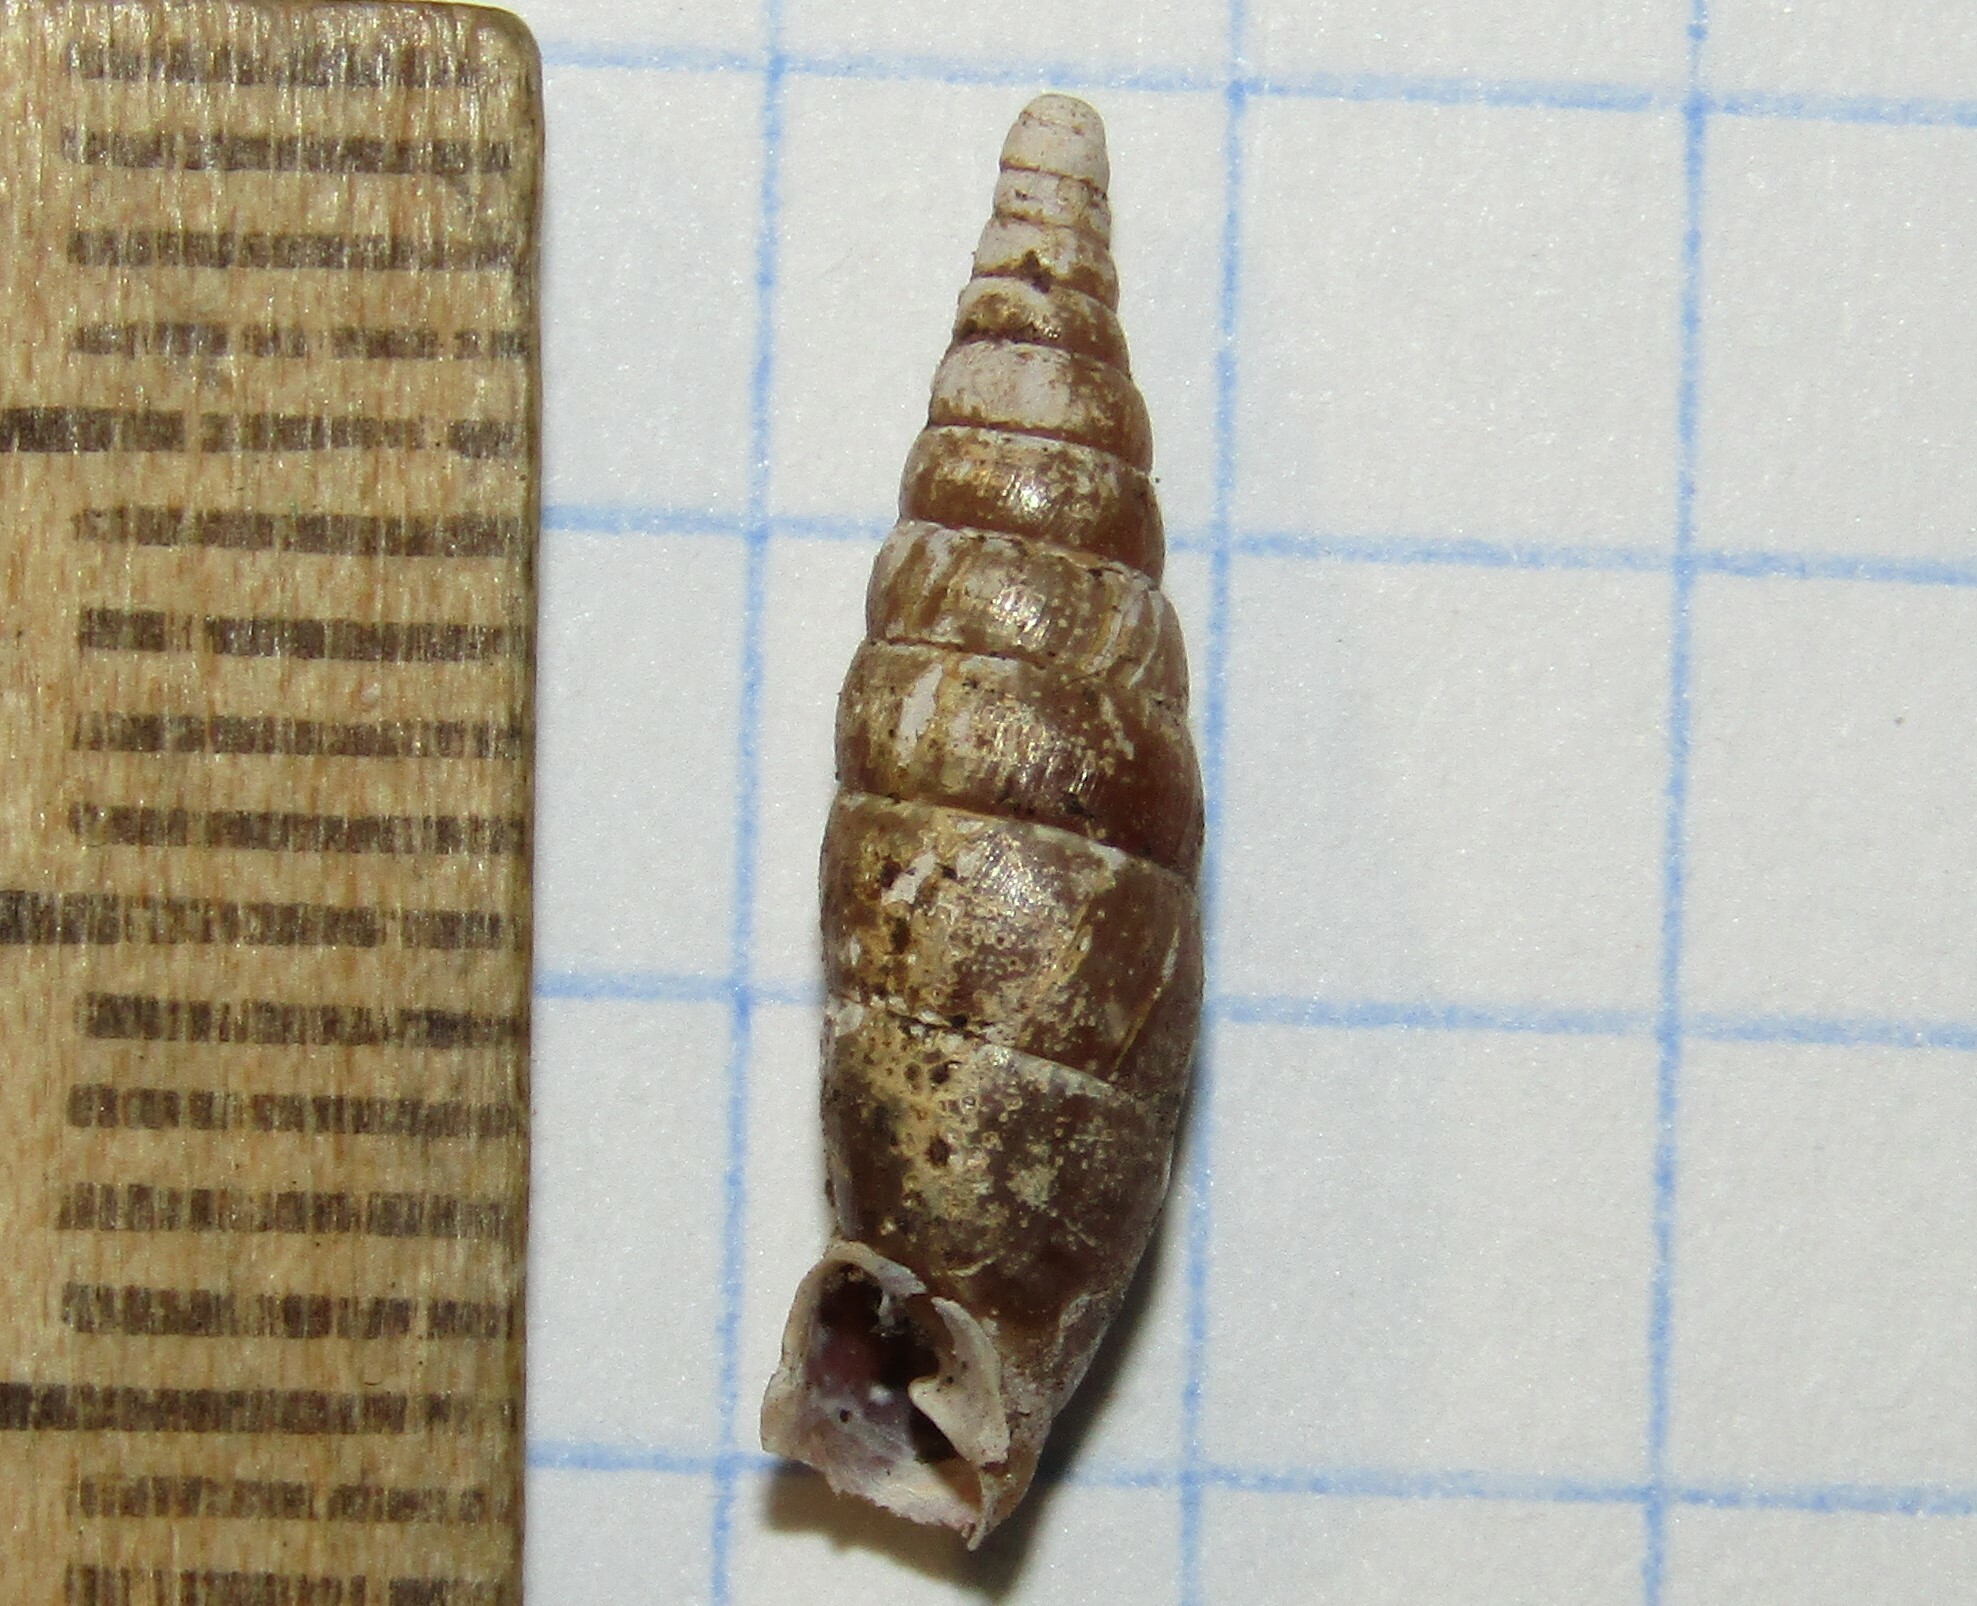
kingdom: Animalia
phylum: Mollusca
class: Gastropoda
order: Stylommatophora
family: Clausiliidae
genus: Cochlodina
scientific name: Cochlodina laminata
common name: Plaited door snail
